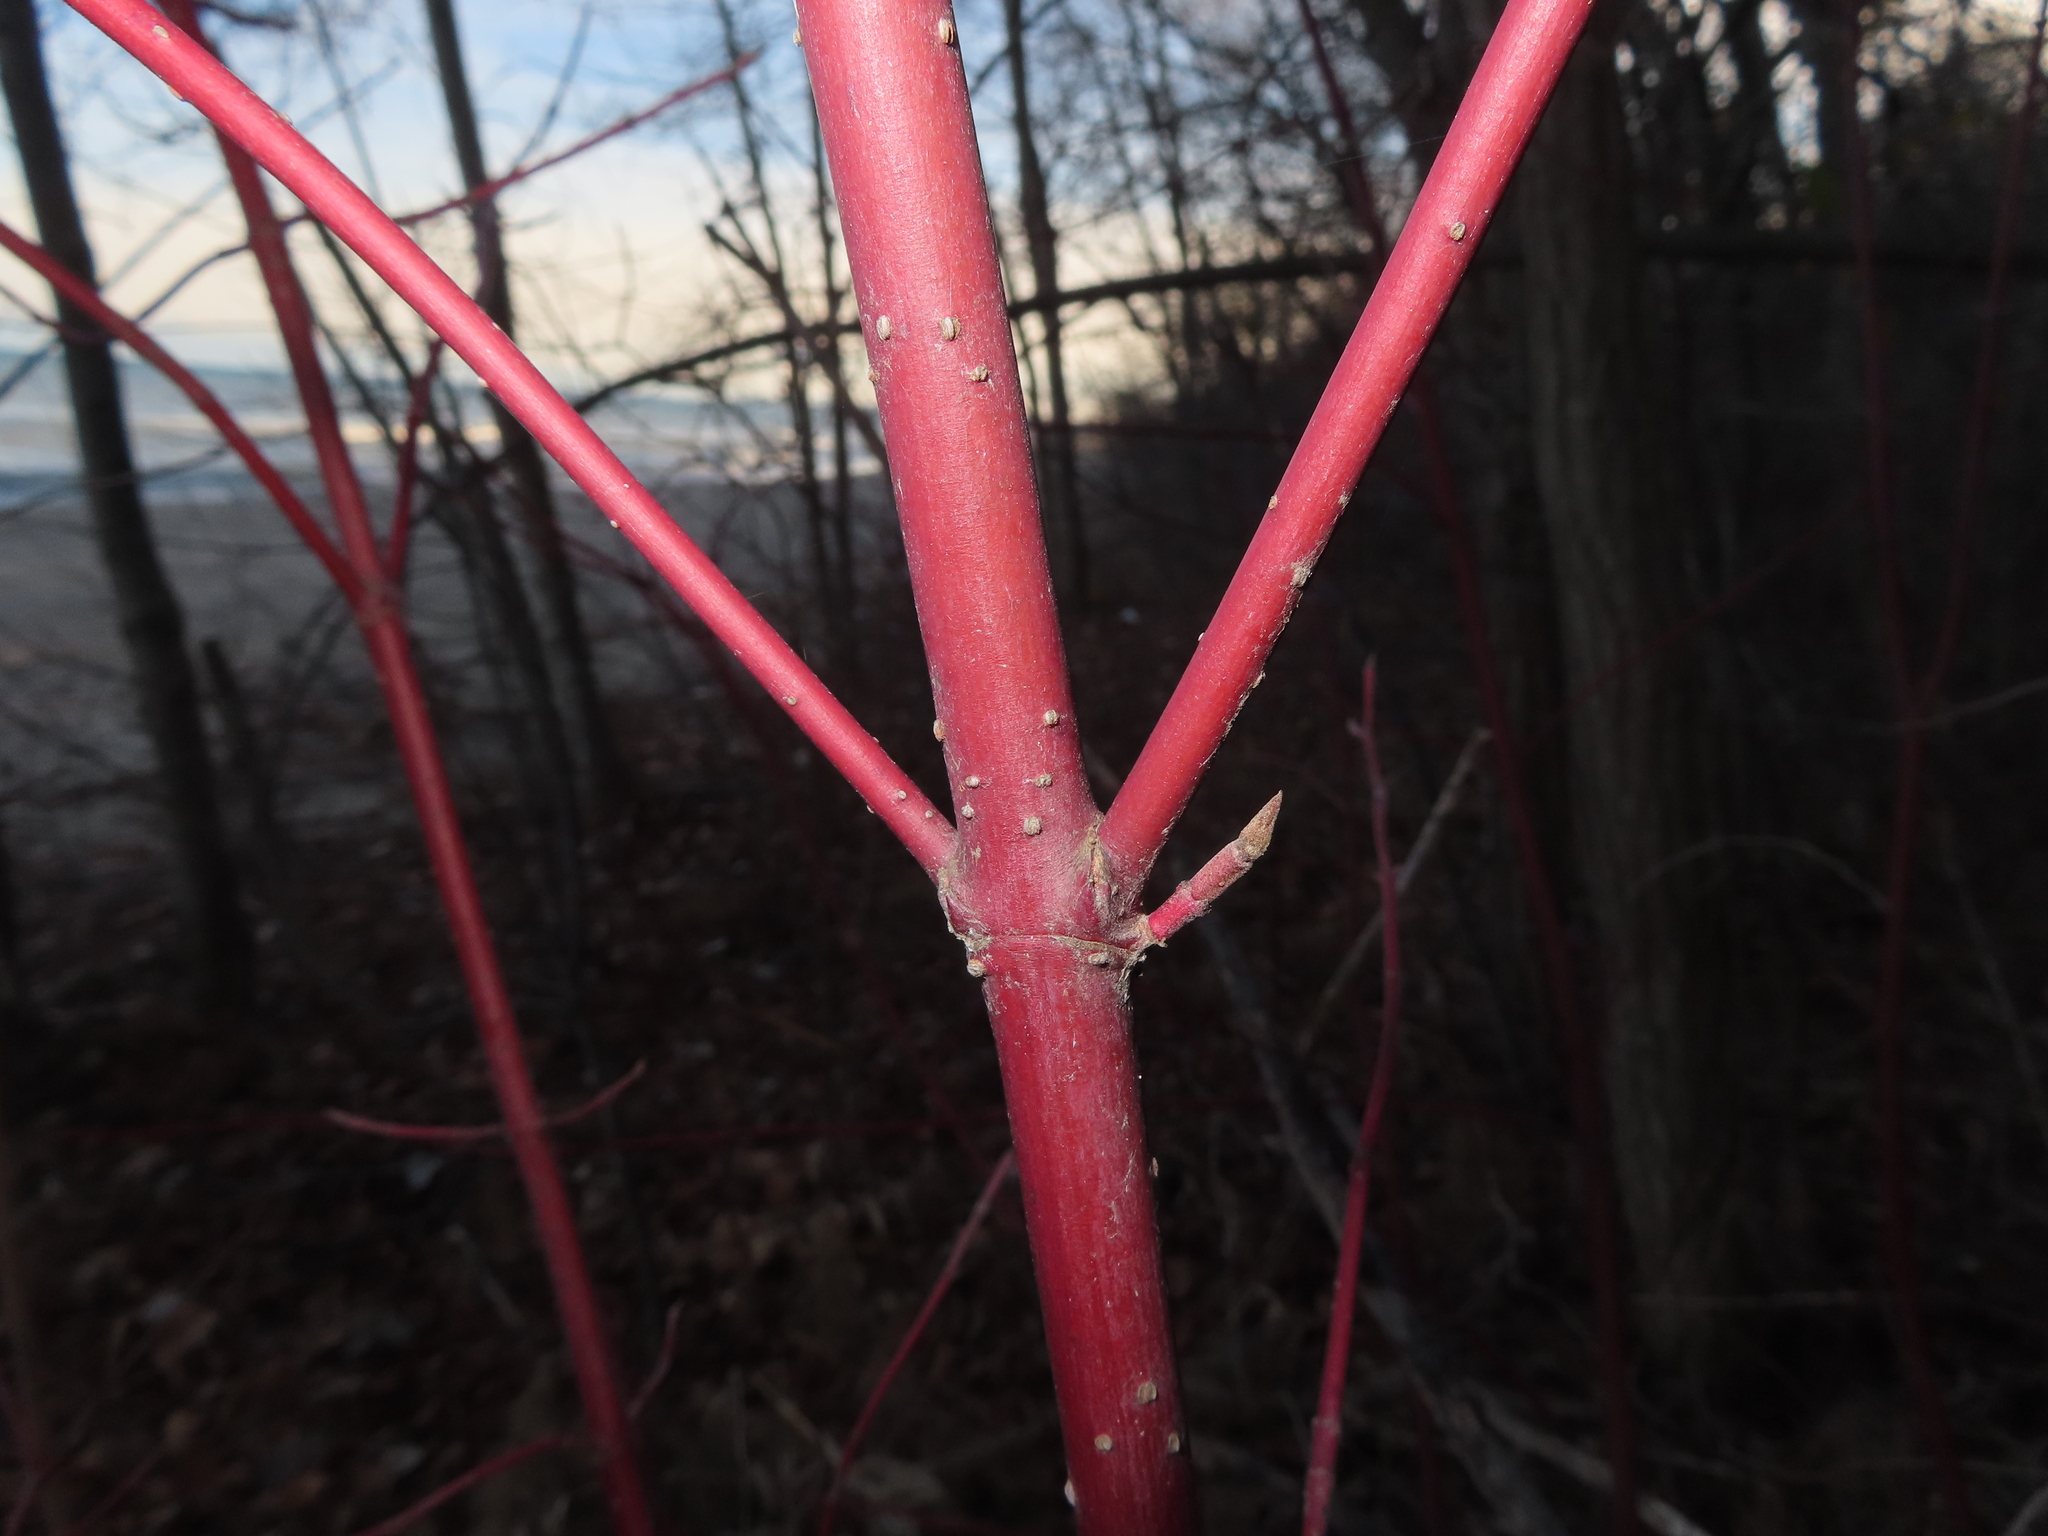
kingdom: Plantae
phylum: Tracheophyta
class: Magnoliopsida
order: Cornales
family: Cornaceae
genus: Cornus
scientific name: Cornus sericea
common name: Red-osier dogwood
